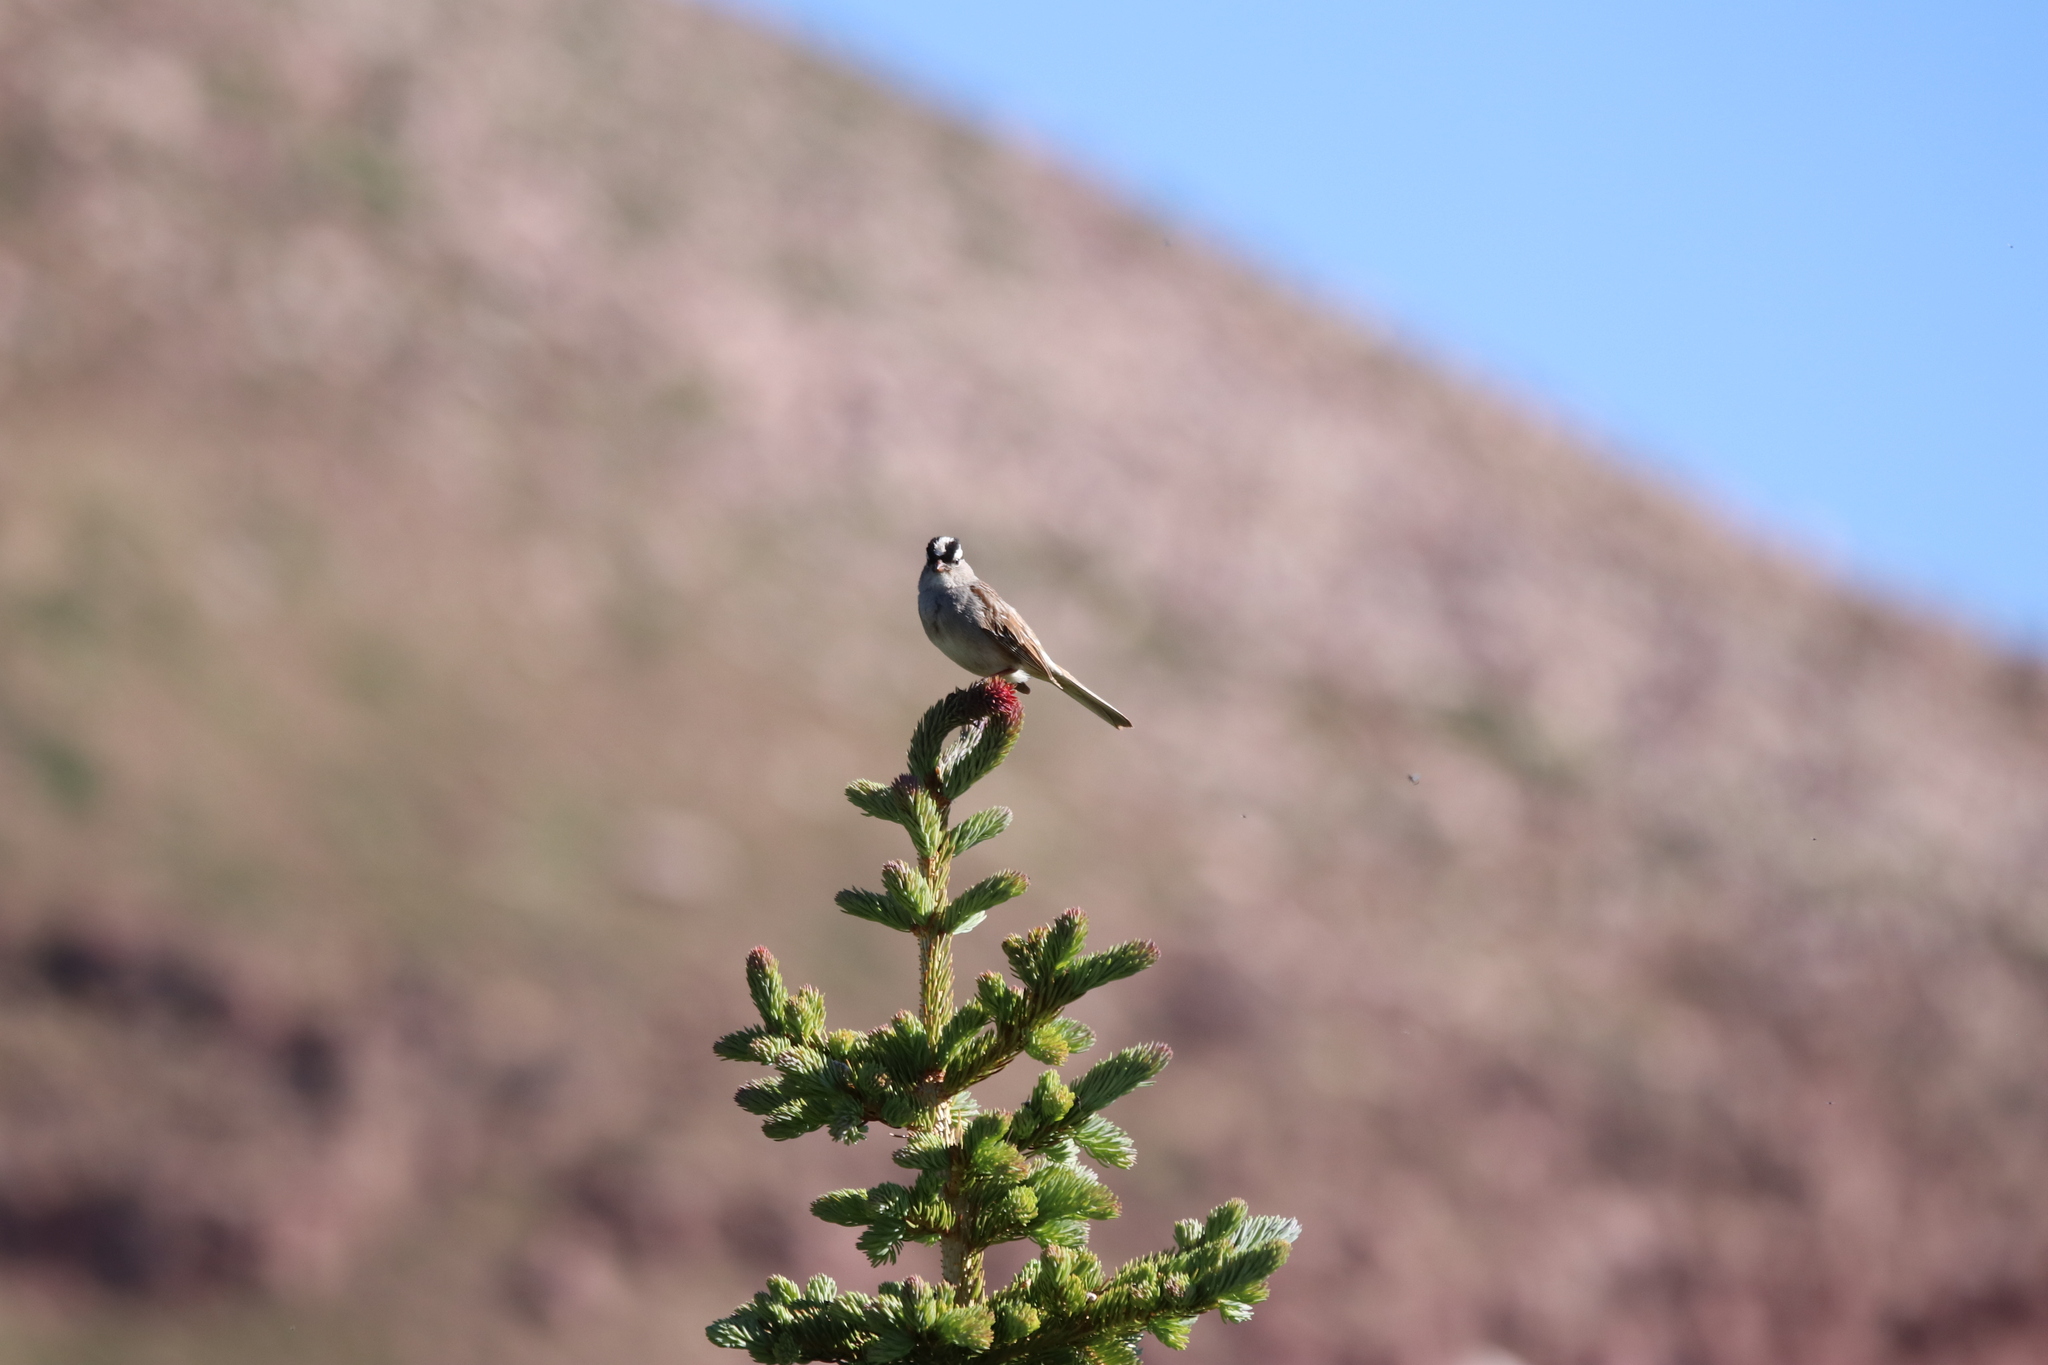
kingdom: Animalia
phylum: Chordata
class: Aves
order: Passeriformes
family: Passerellidae
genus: Zonotrichia
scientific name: Zonotrichia leucophrys
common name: White-crowned sparrow
